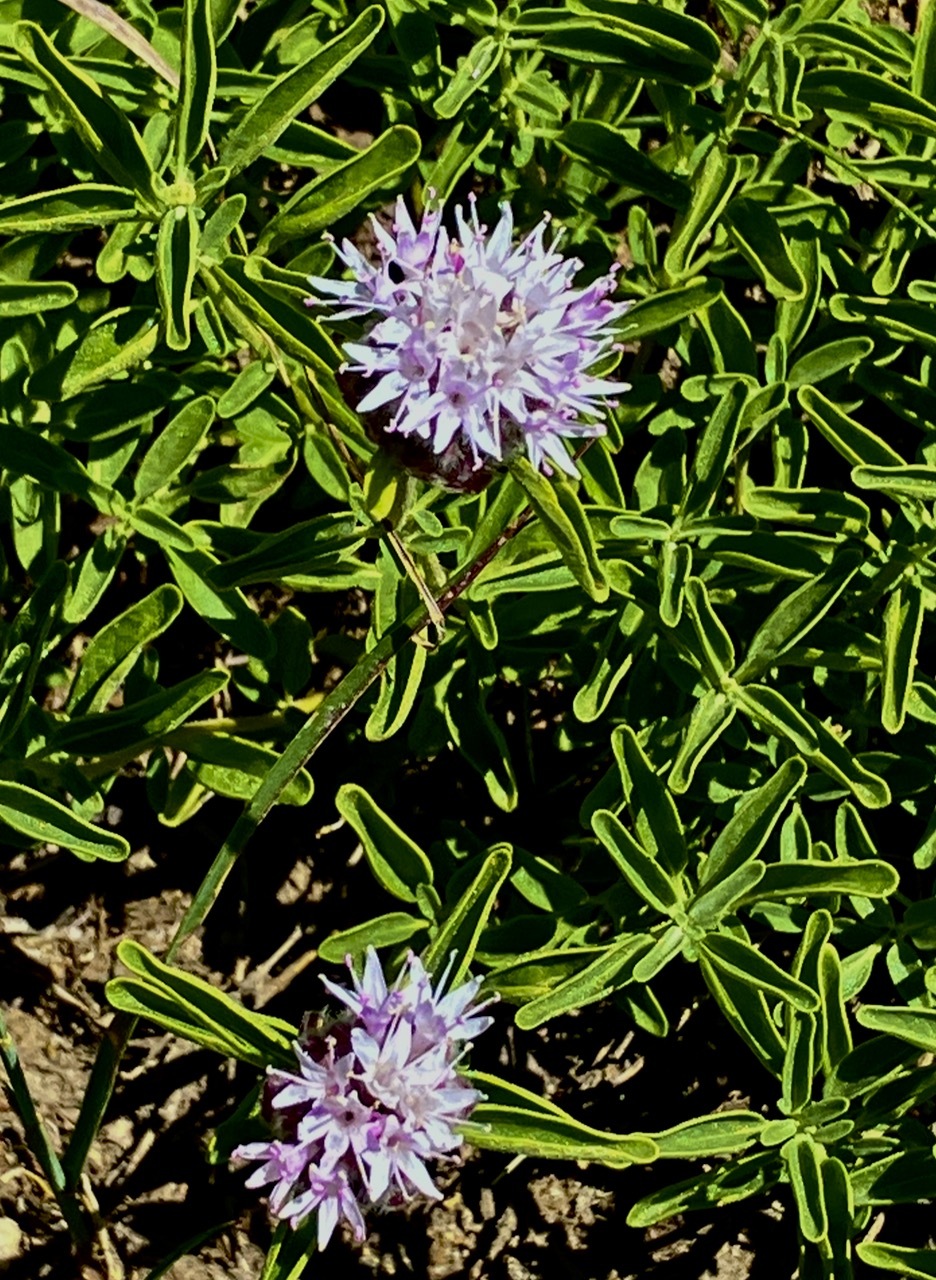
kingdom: Plantae
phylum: Tracheophyta
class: Magnoliopsida
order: Lamiales
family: Lamiaceae
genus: Monardella
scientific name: Monardella odoratissima
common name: Pacific monardella
